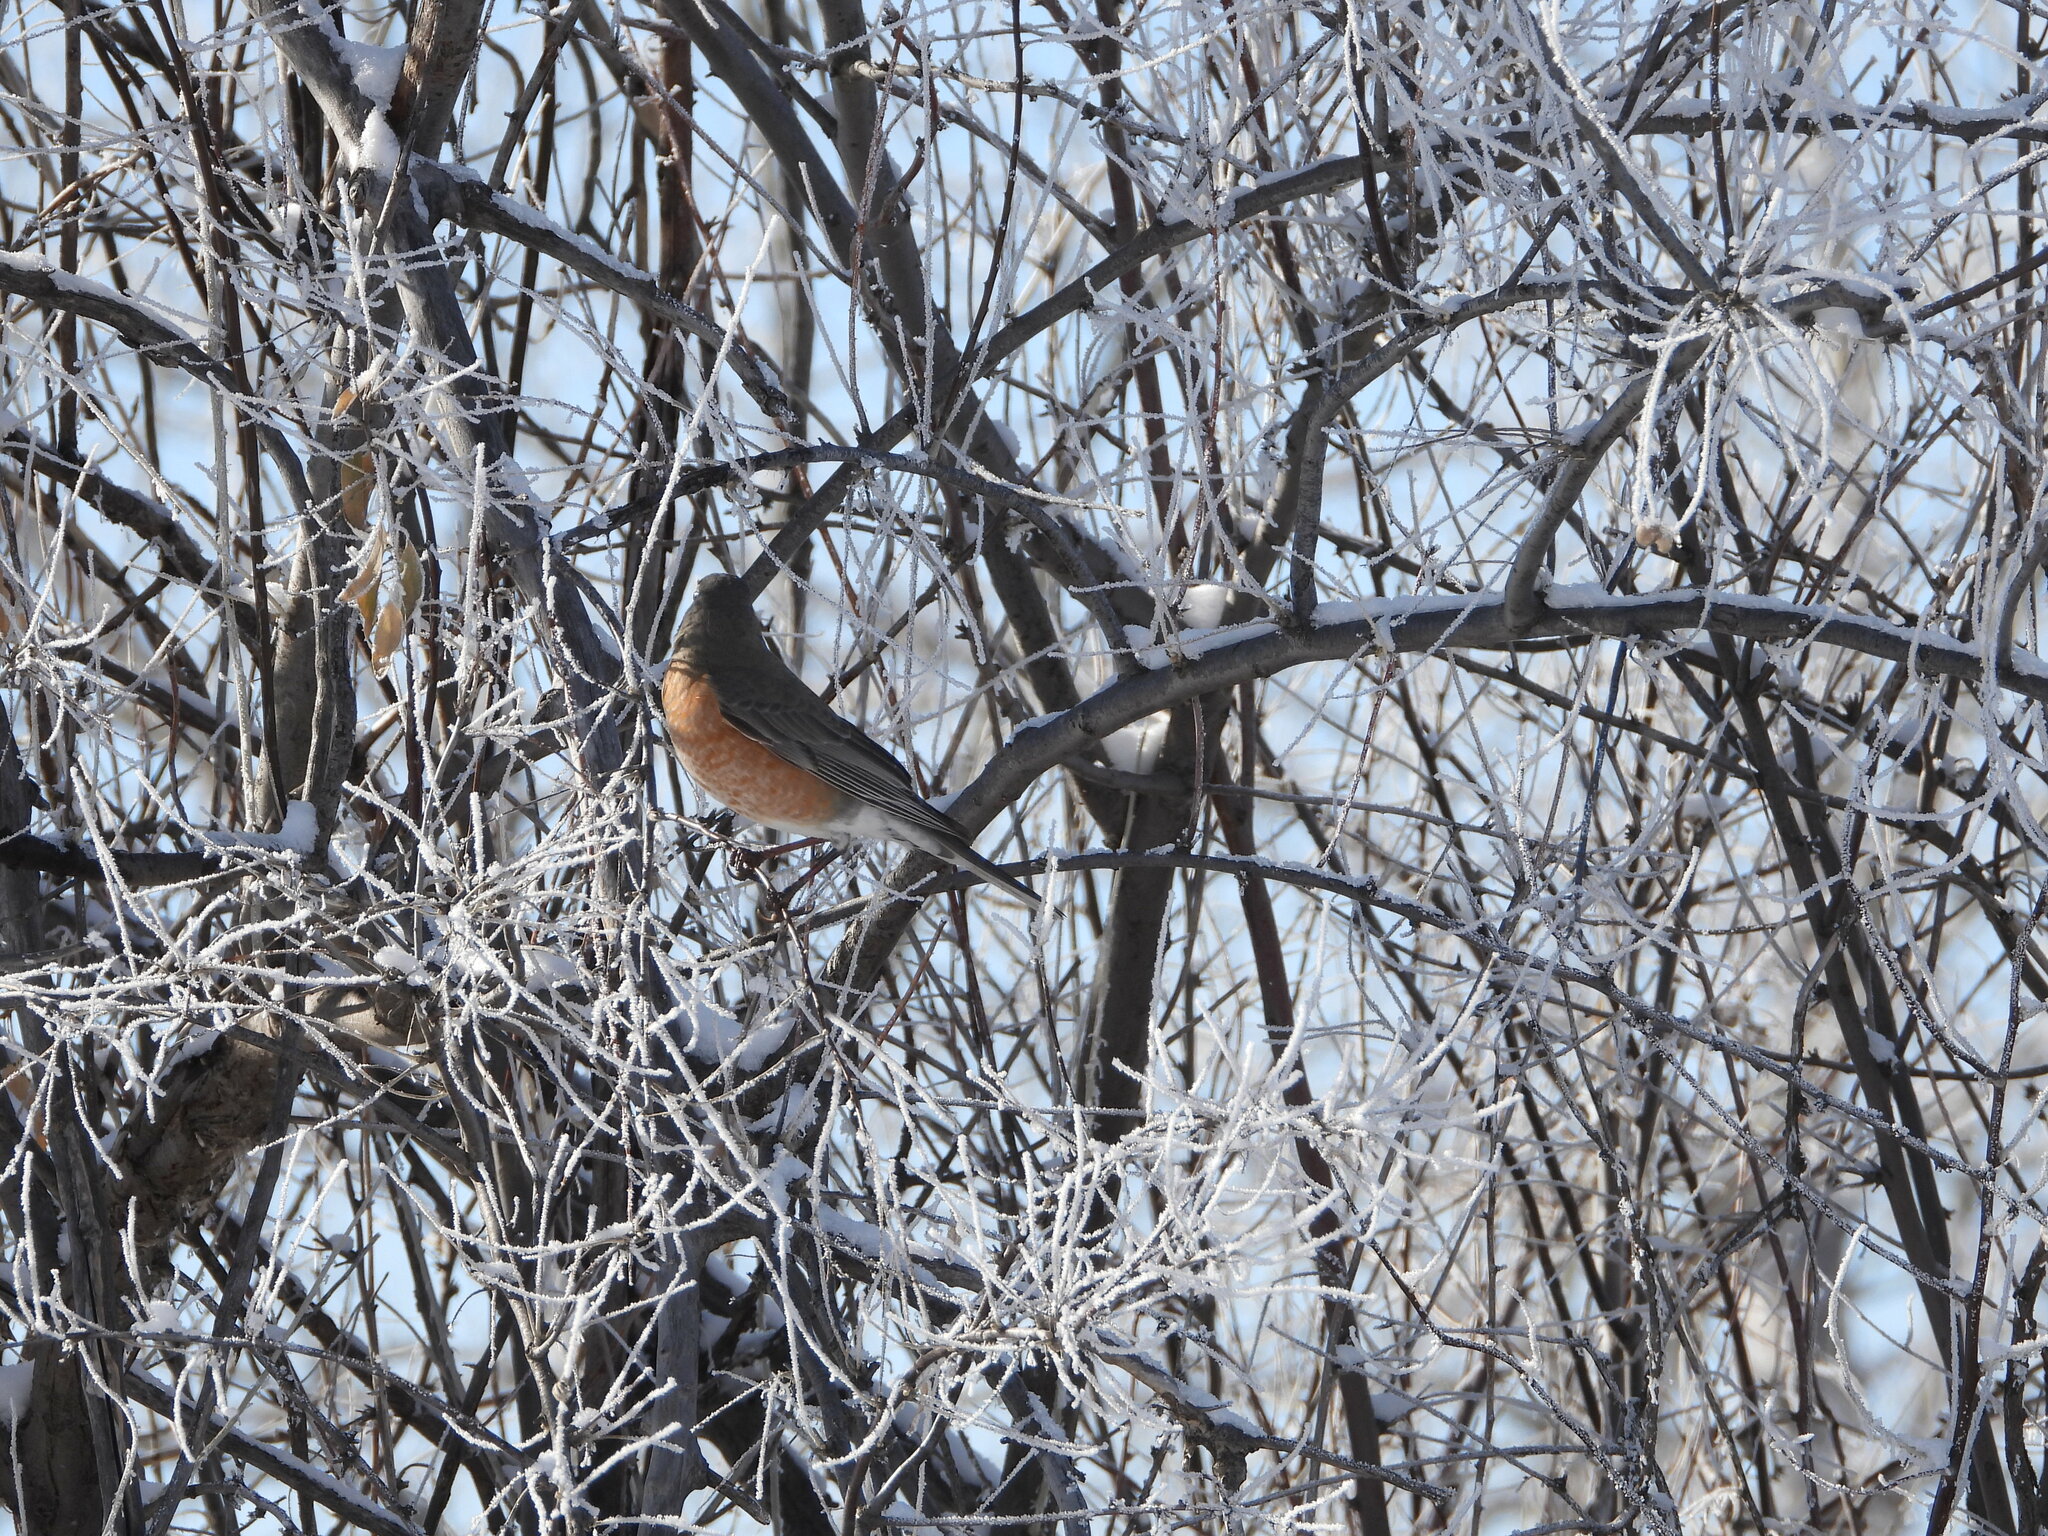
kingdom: Animalia
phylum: Chordata
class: Aves
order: Passeriformes
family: Turdidae
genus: Turdus
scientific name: Turdus migratorius
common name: American robin
